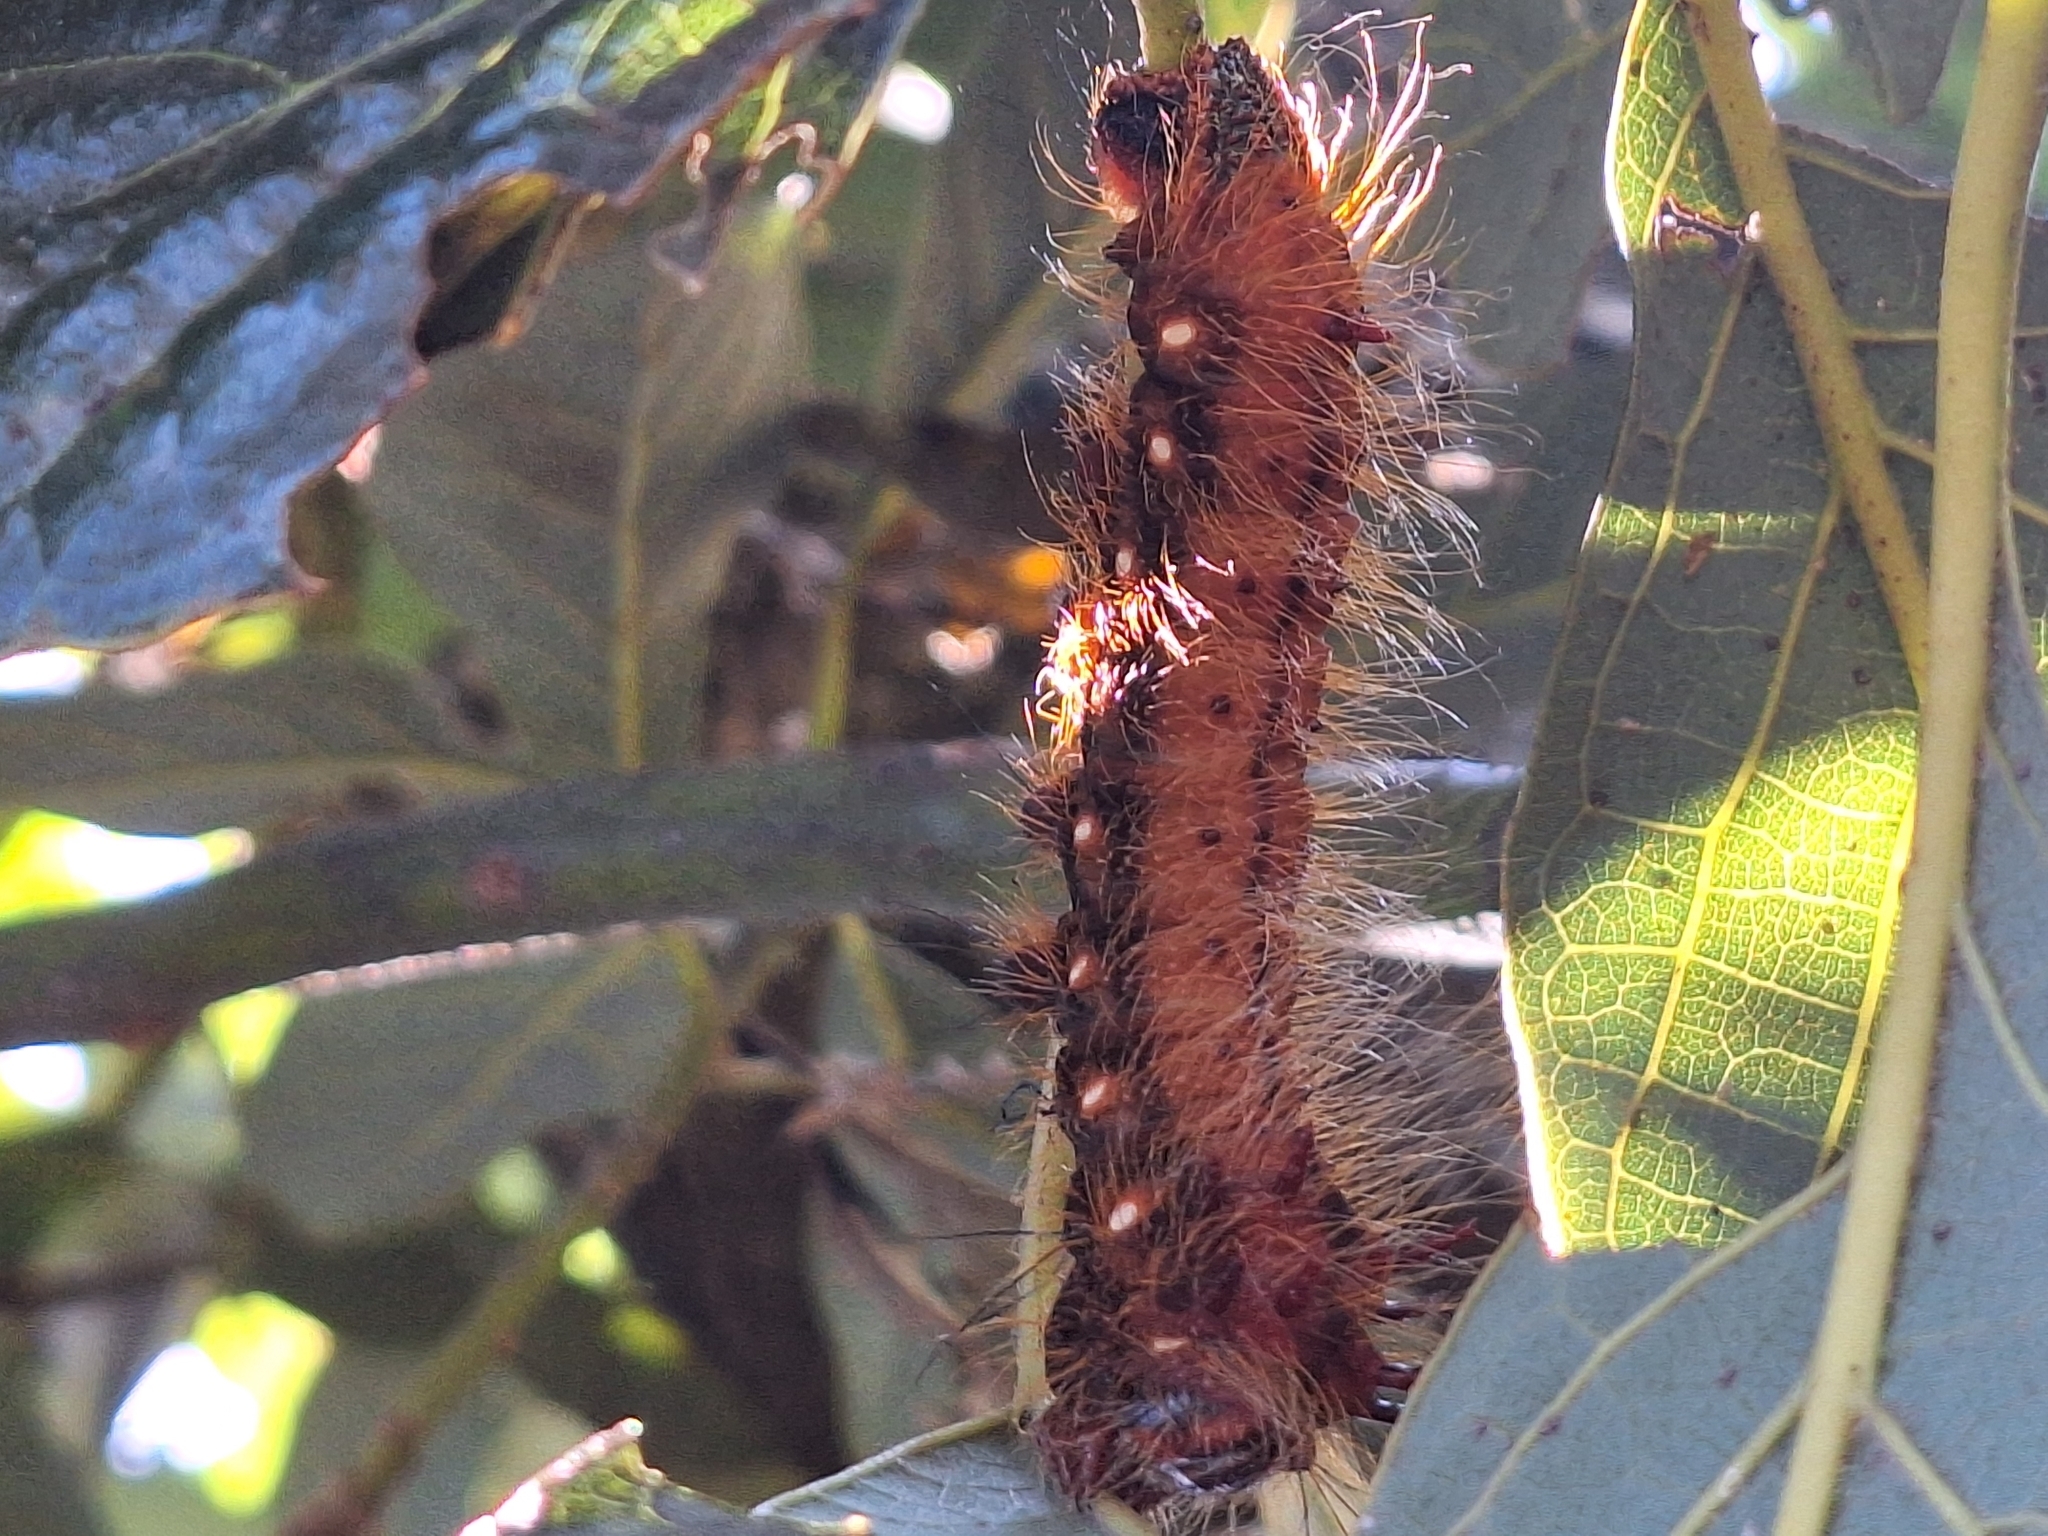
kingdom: Animalia
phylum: Arthropoda
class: Insecta
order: Lepidoptera
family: Saturniidae
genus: Eacles
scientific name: Eacles imperialis
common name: Imperial moth
